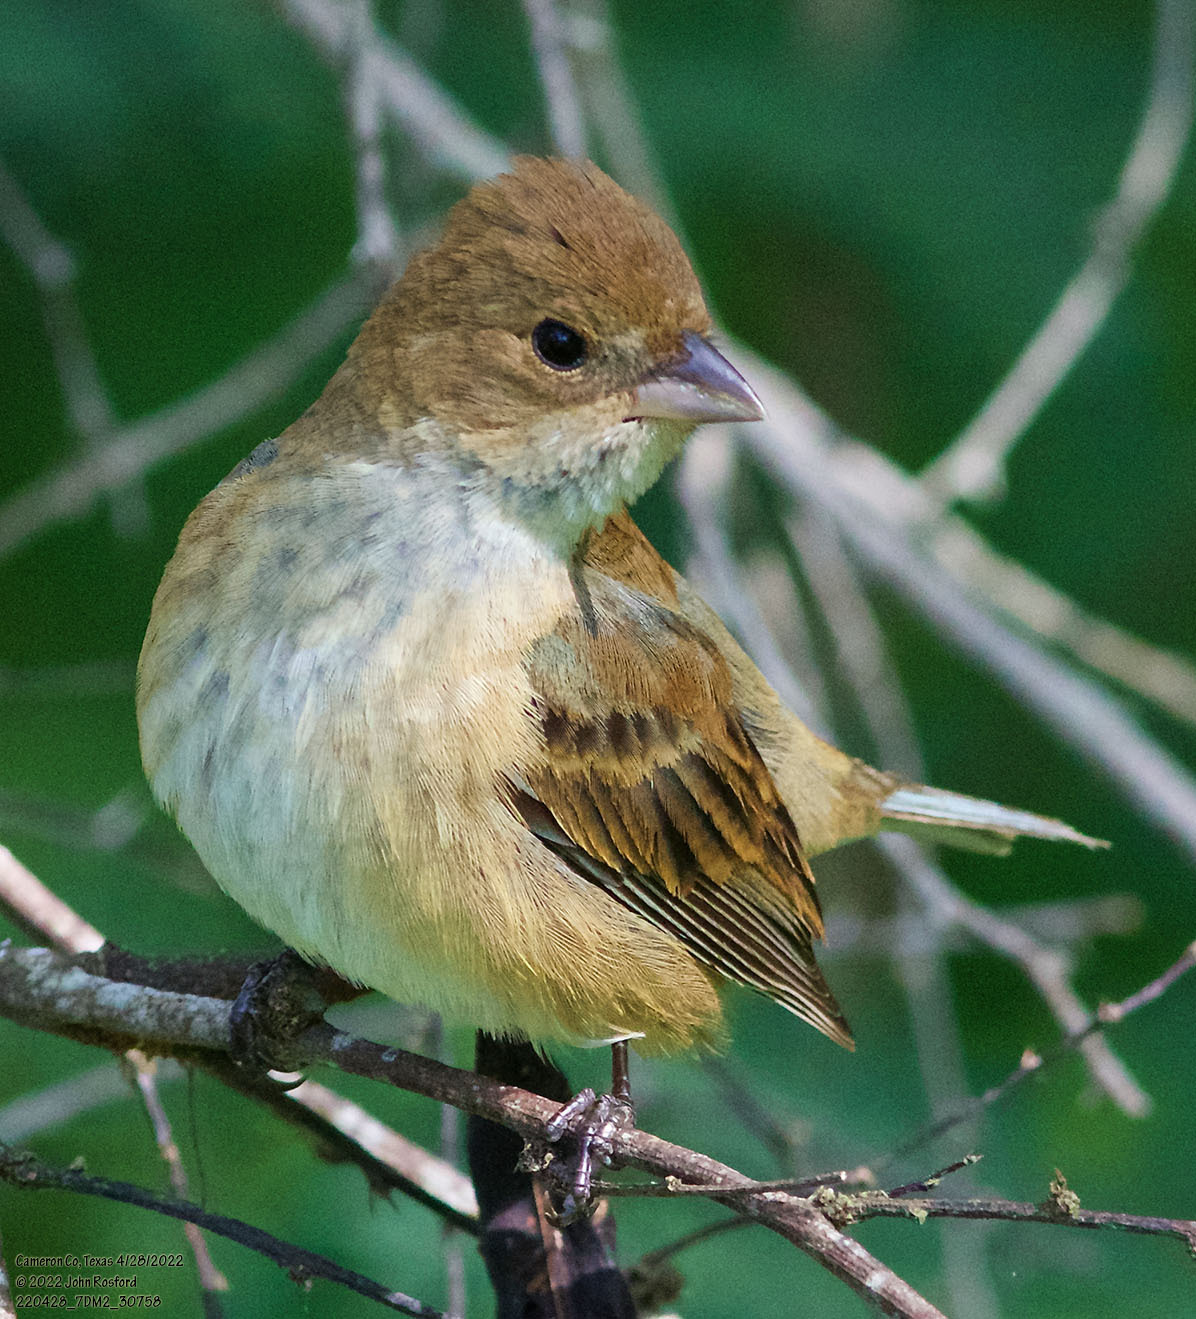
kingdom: Animalia
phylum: Chordata
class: Aves
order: Passeriformes
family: Cardinalidae
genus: Passerina
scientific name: Passerina cyanea
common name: Indigo bunting
